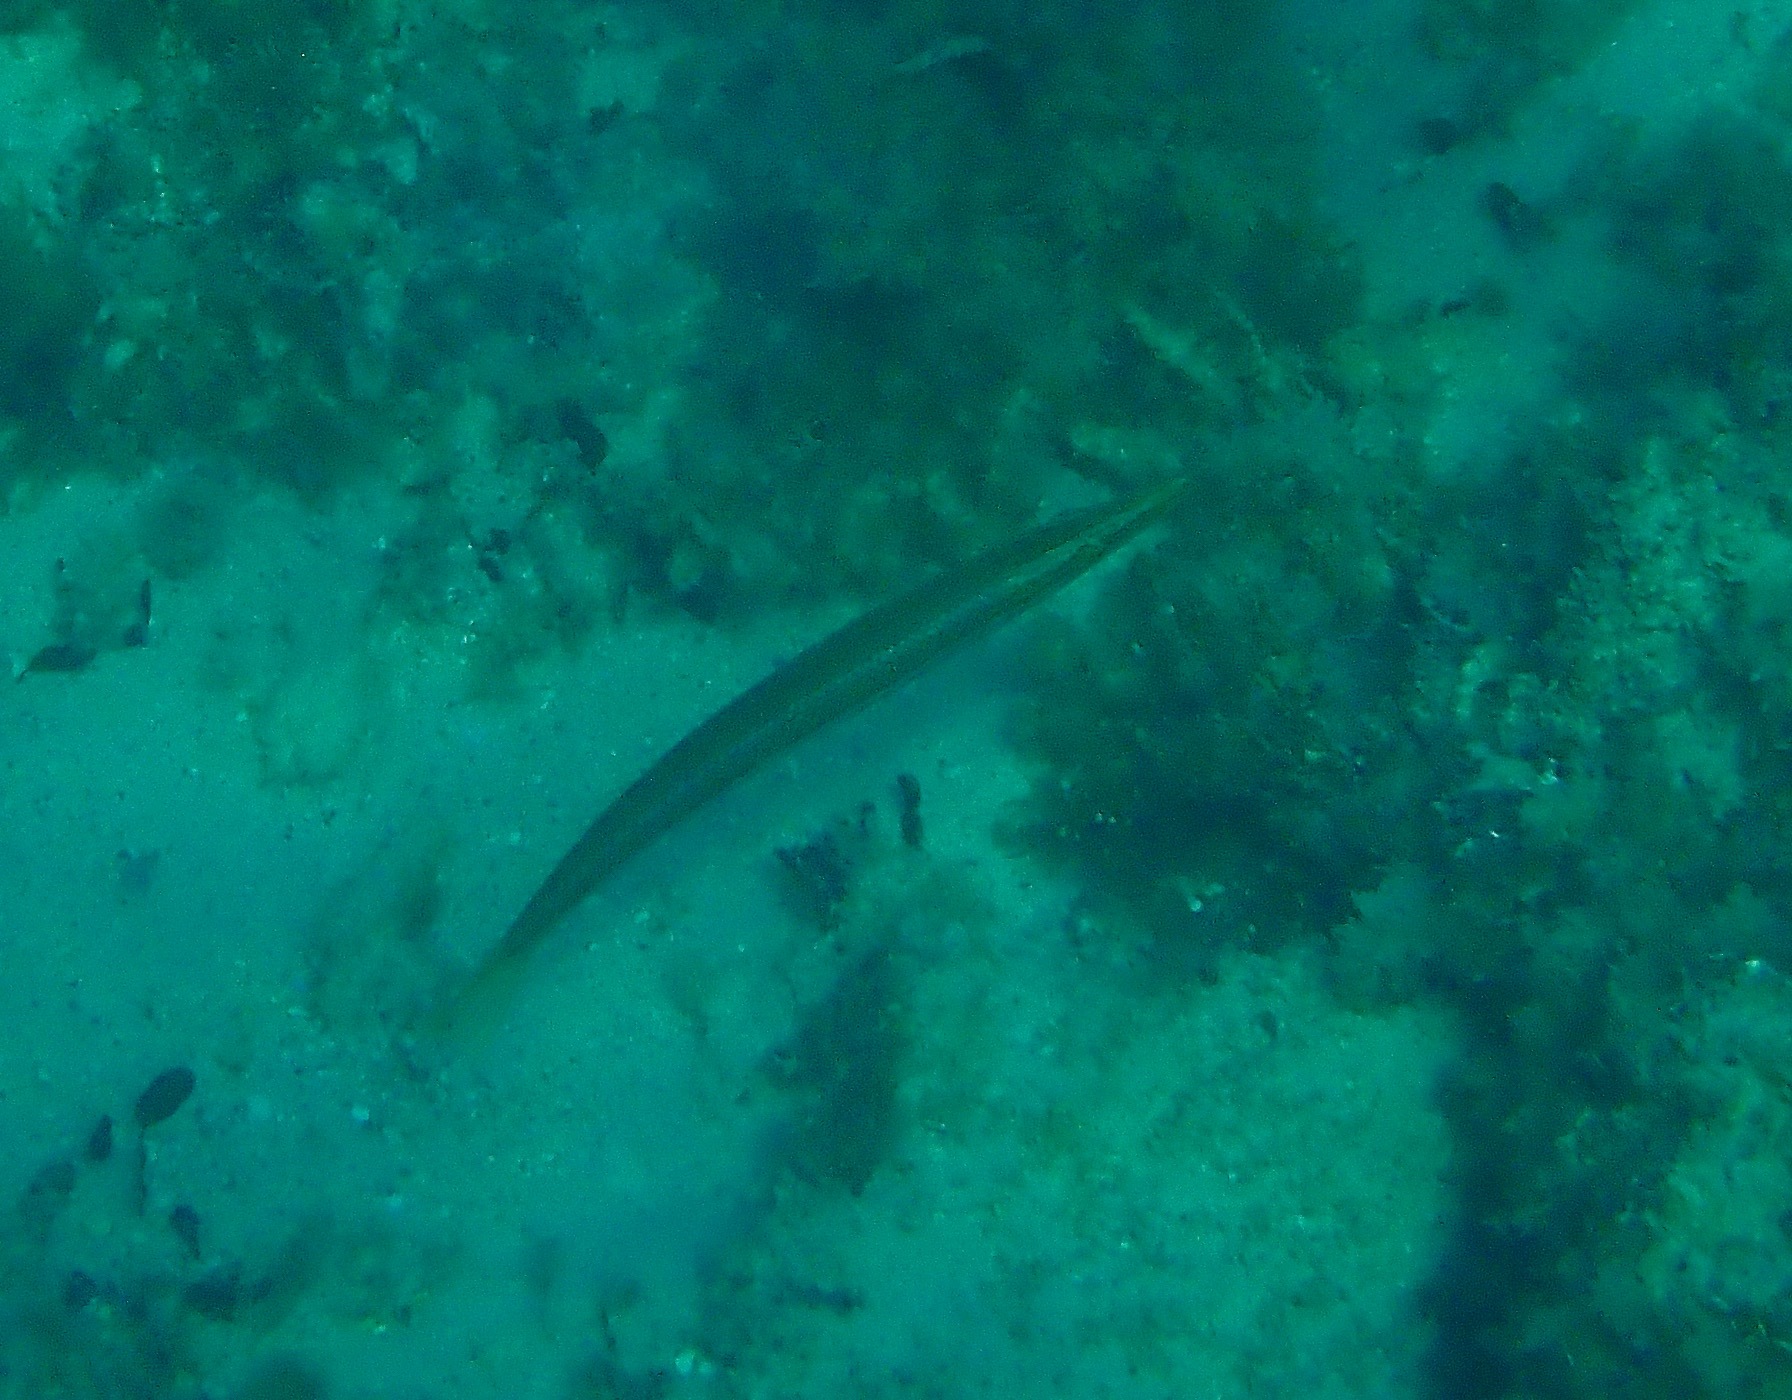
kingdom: Animalia
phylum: Chordata
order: Perciformes
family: Labridae
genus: Cheilio
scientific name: Cheilio inermis
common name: Cigar wrasse
